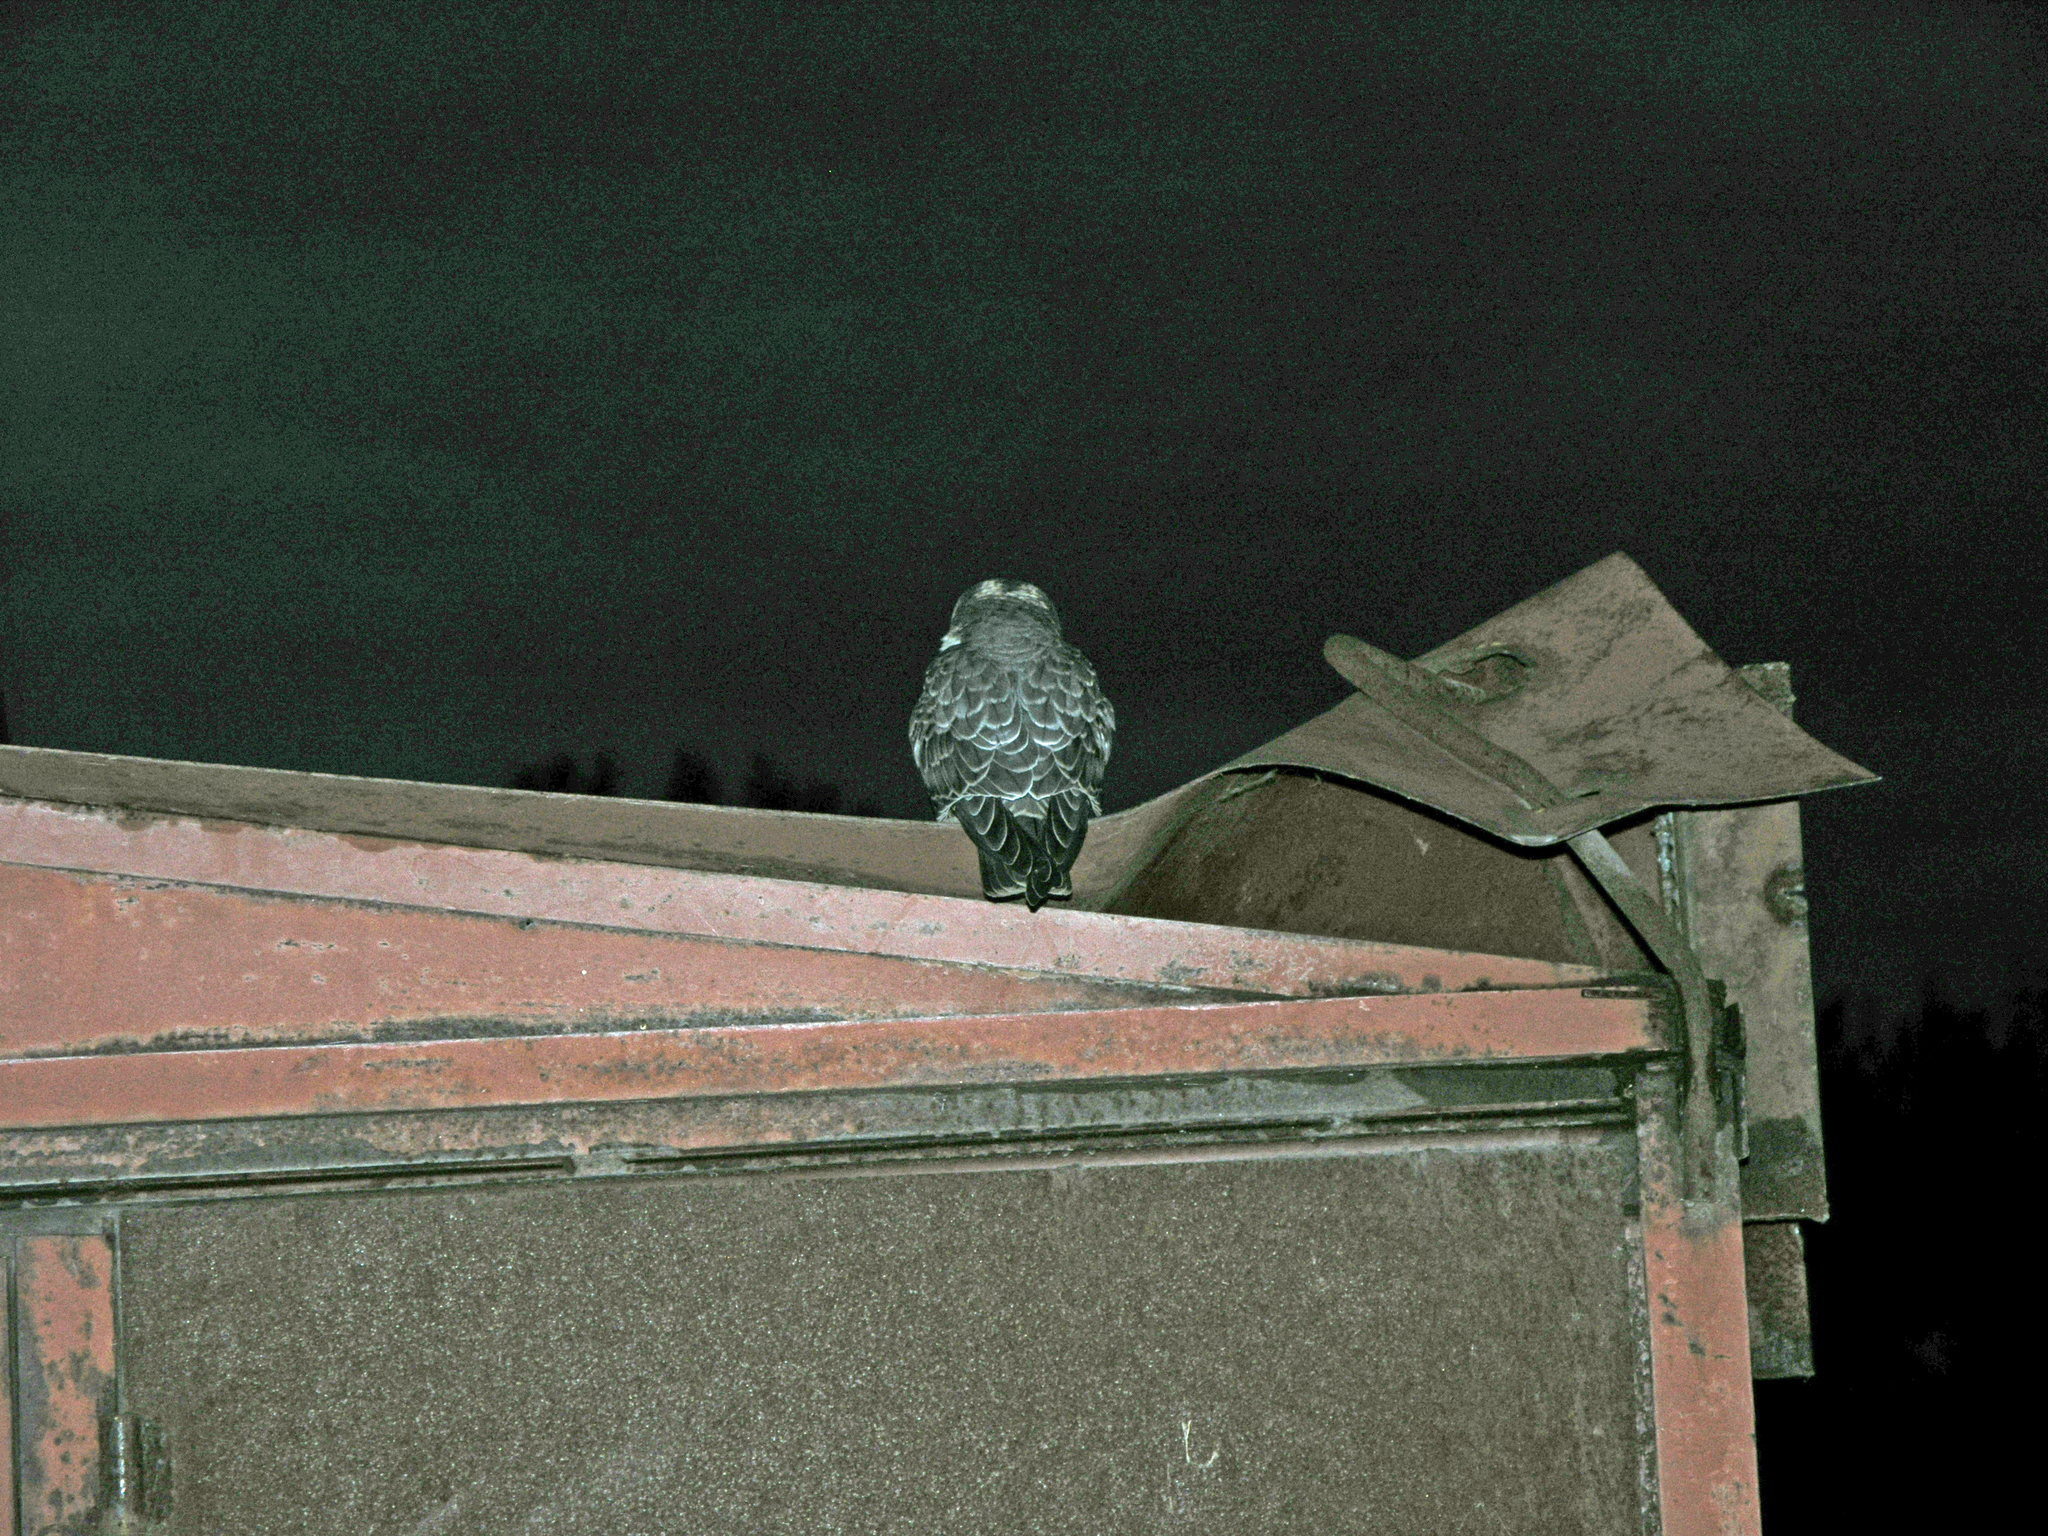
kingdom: Animalia
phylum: Chordata
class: Aves
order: Falconiformes
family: Falconidae
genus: Falco
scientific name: Falco subbuteo
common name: Eurasian hobby
